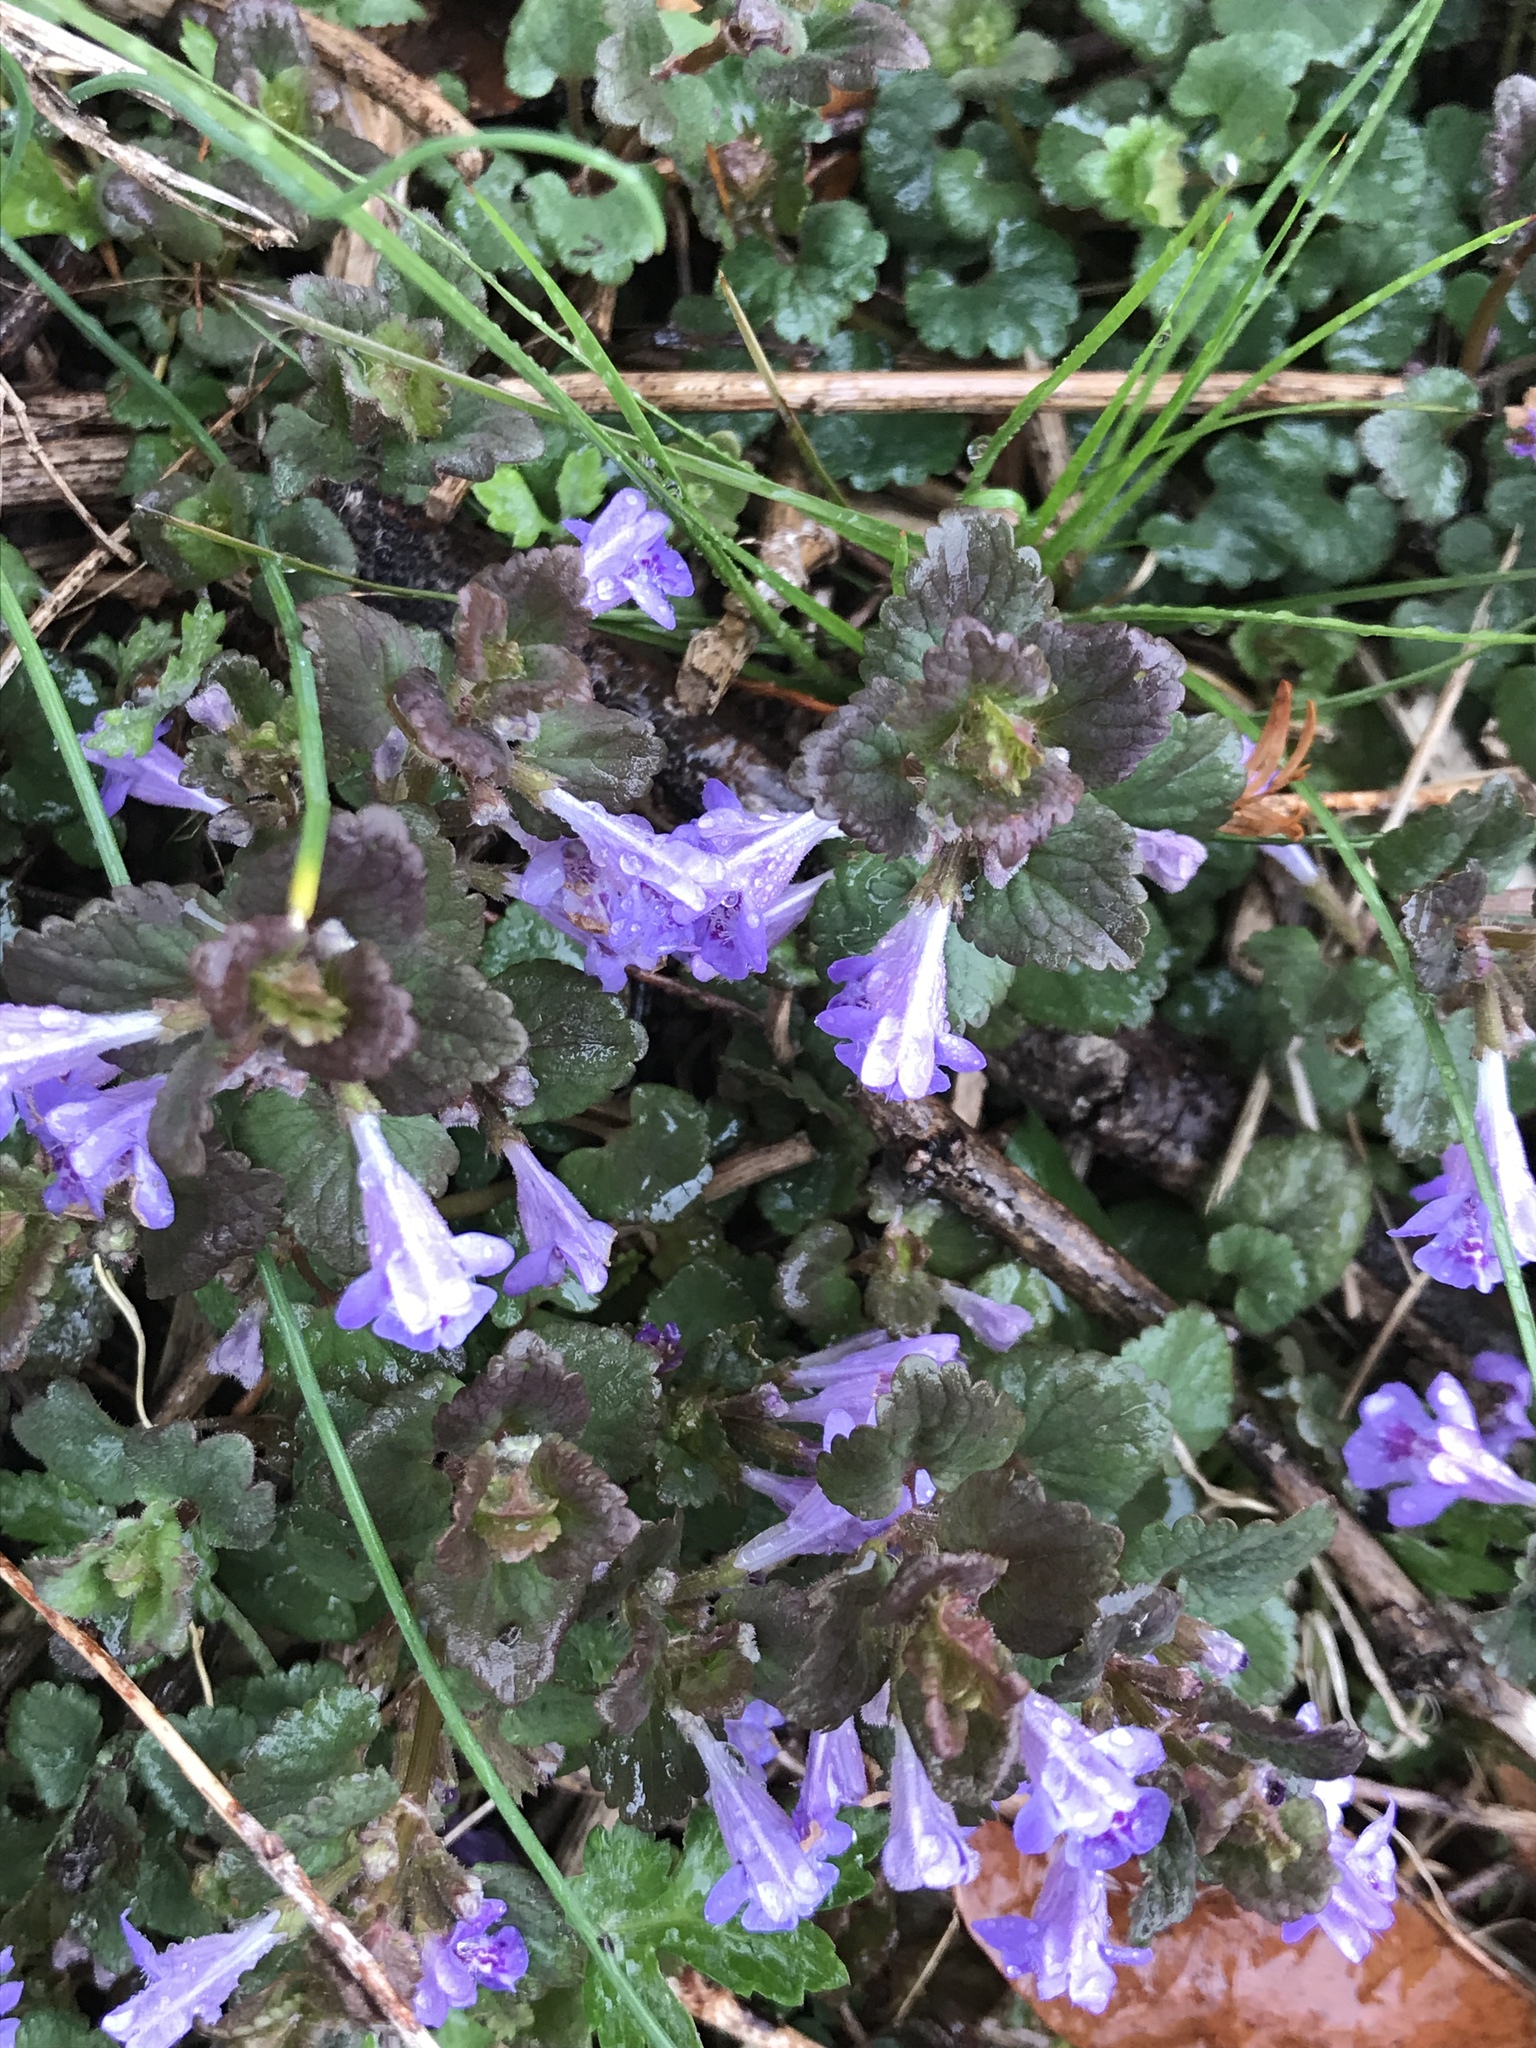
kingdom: Plantae
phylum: Tracheophyta
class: Magnoliopsida
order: Lamiales
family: Lamiaceae
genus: Glechoma
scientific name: Glechoma hederacea
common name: Ground ivy
